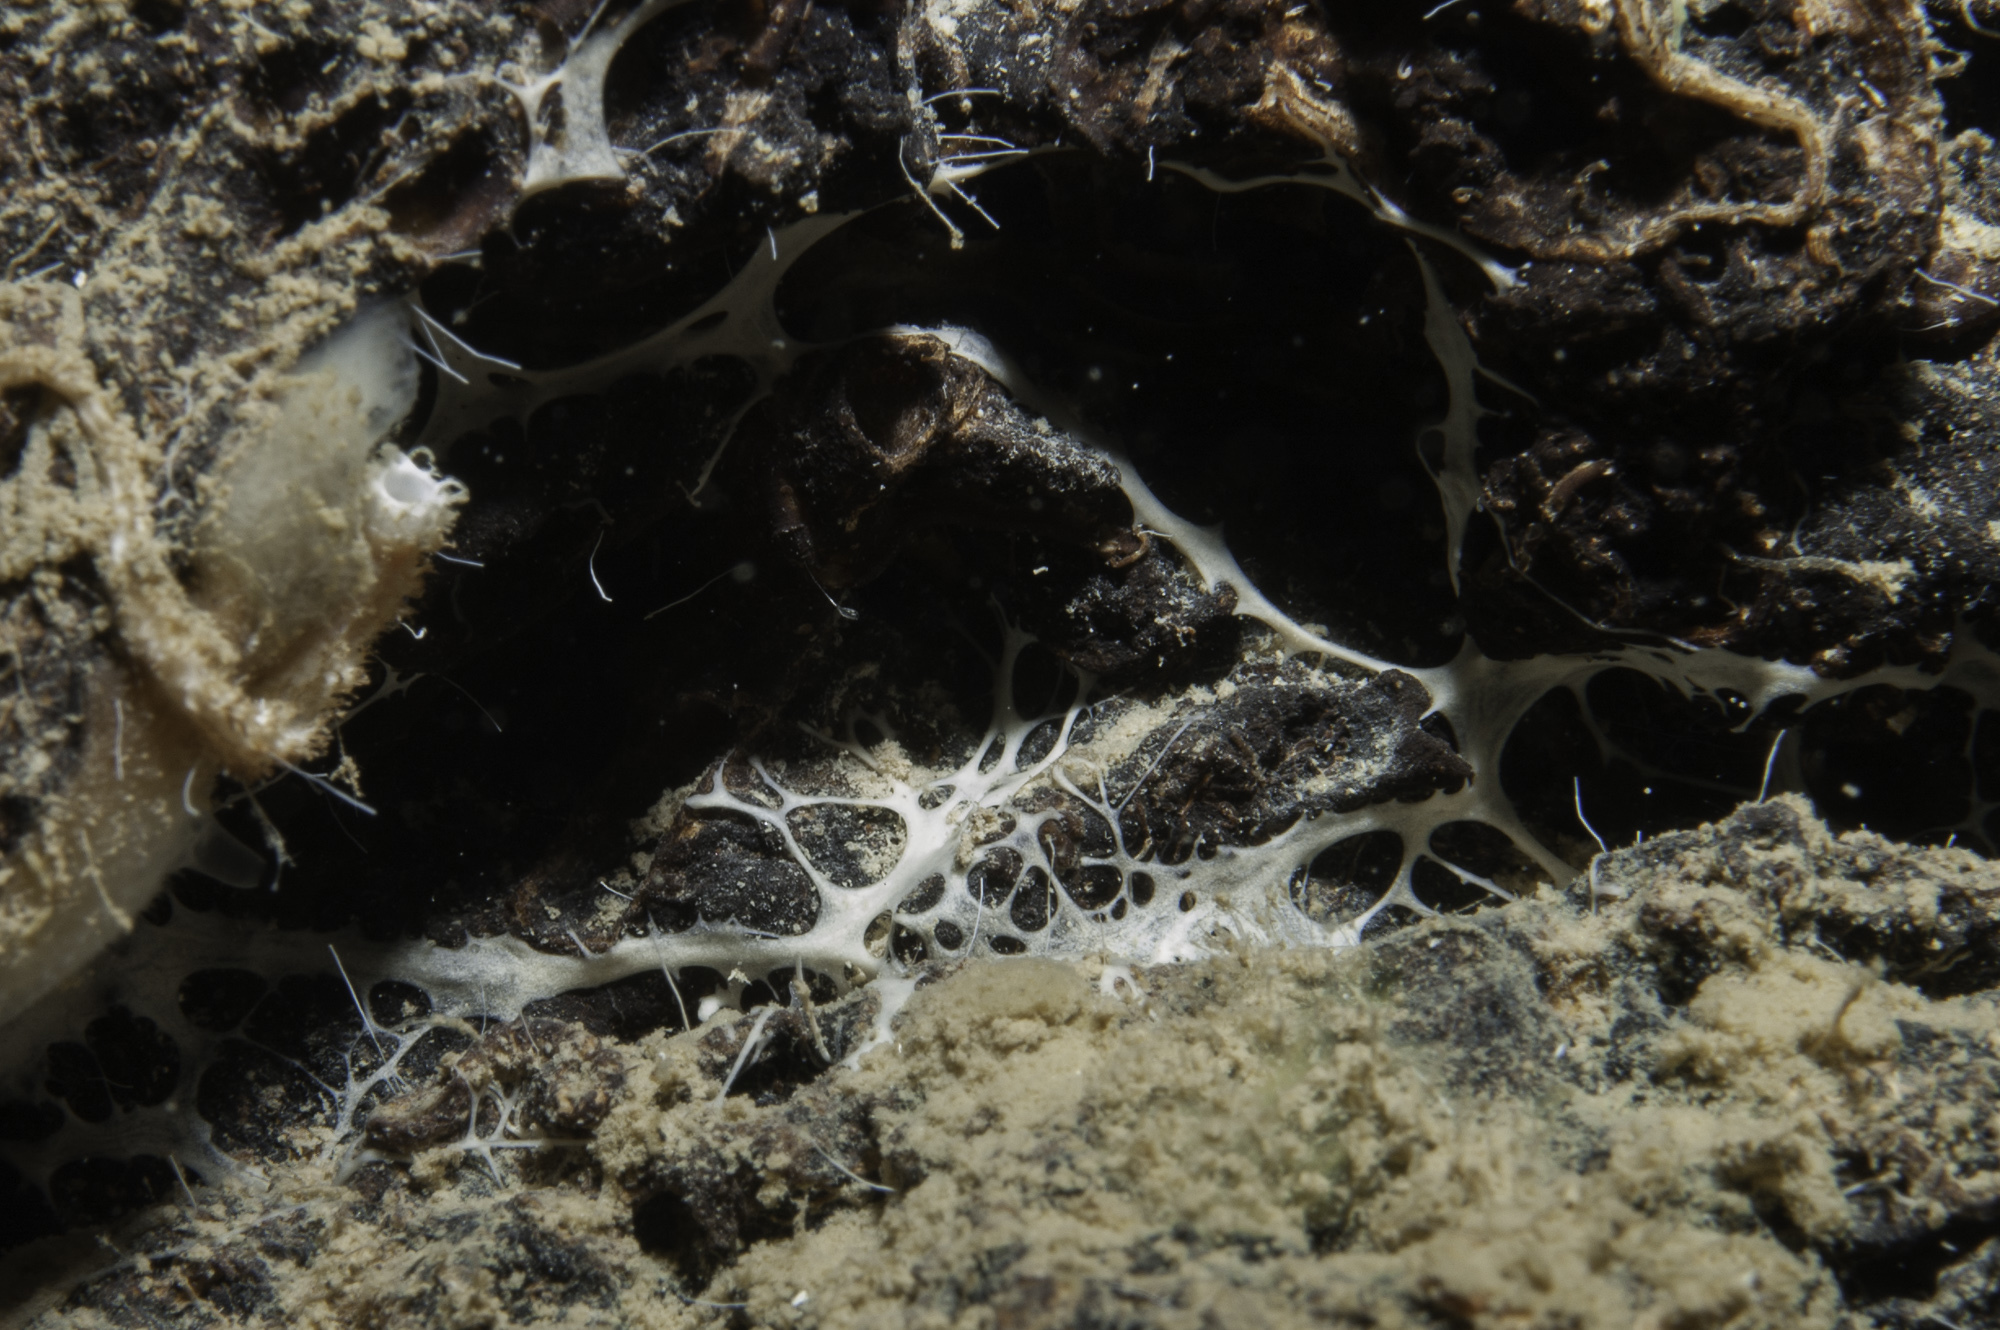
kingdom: Animalia
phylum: Porifera
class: Demospongiae
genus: Myceliospongia
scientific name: Myceliospongia araneosa
